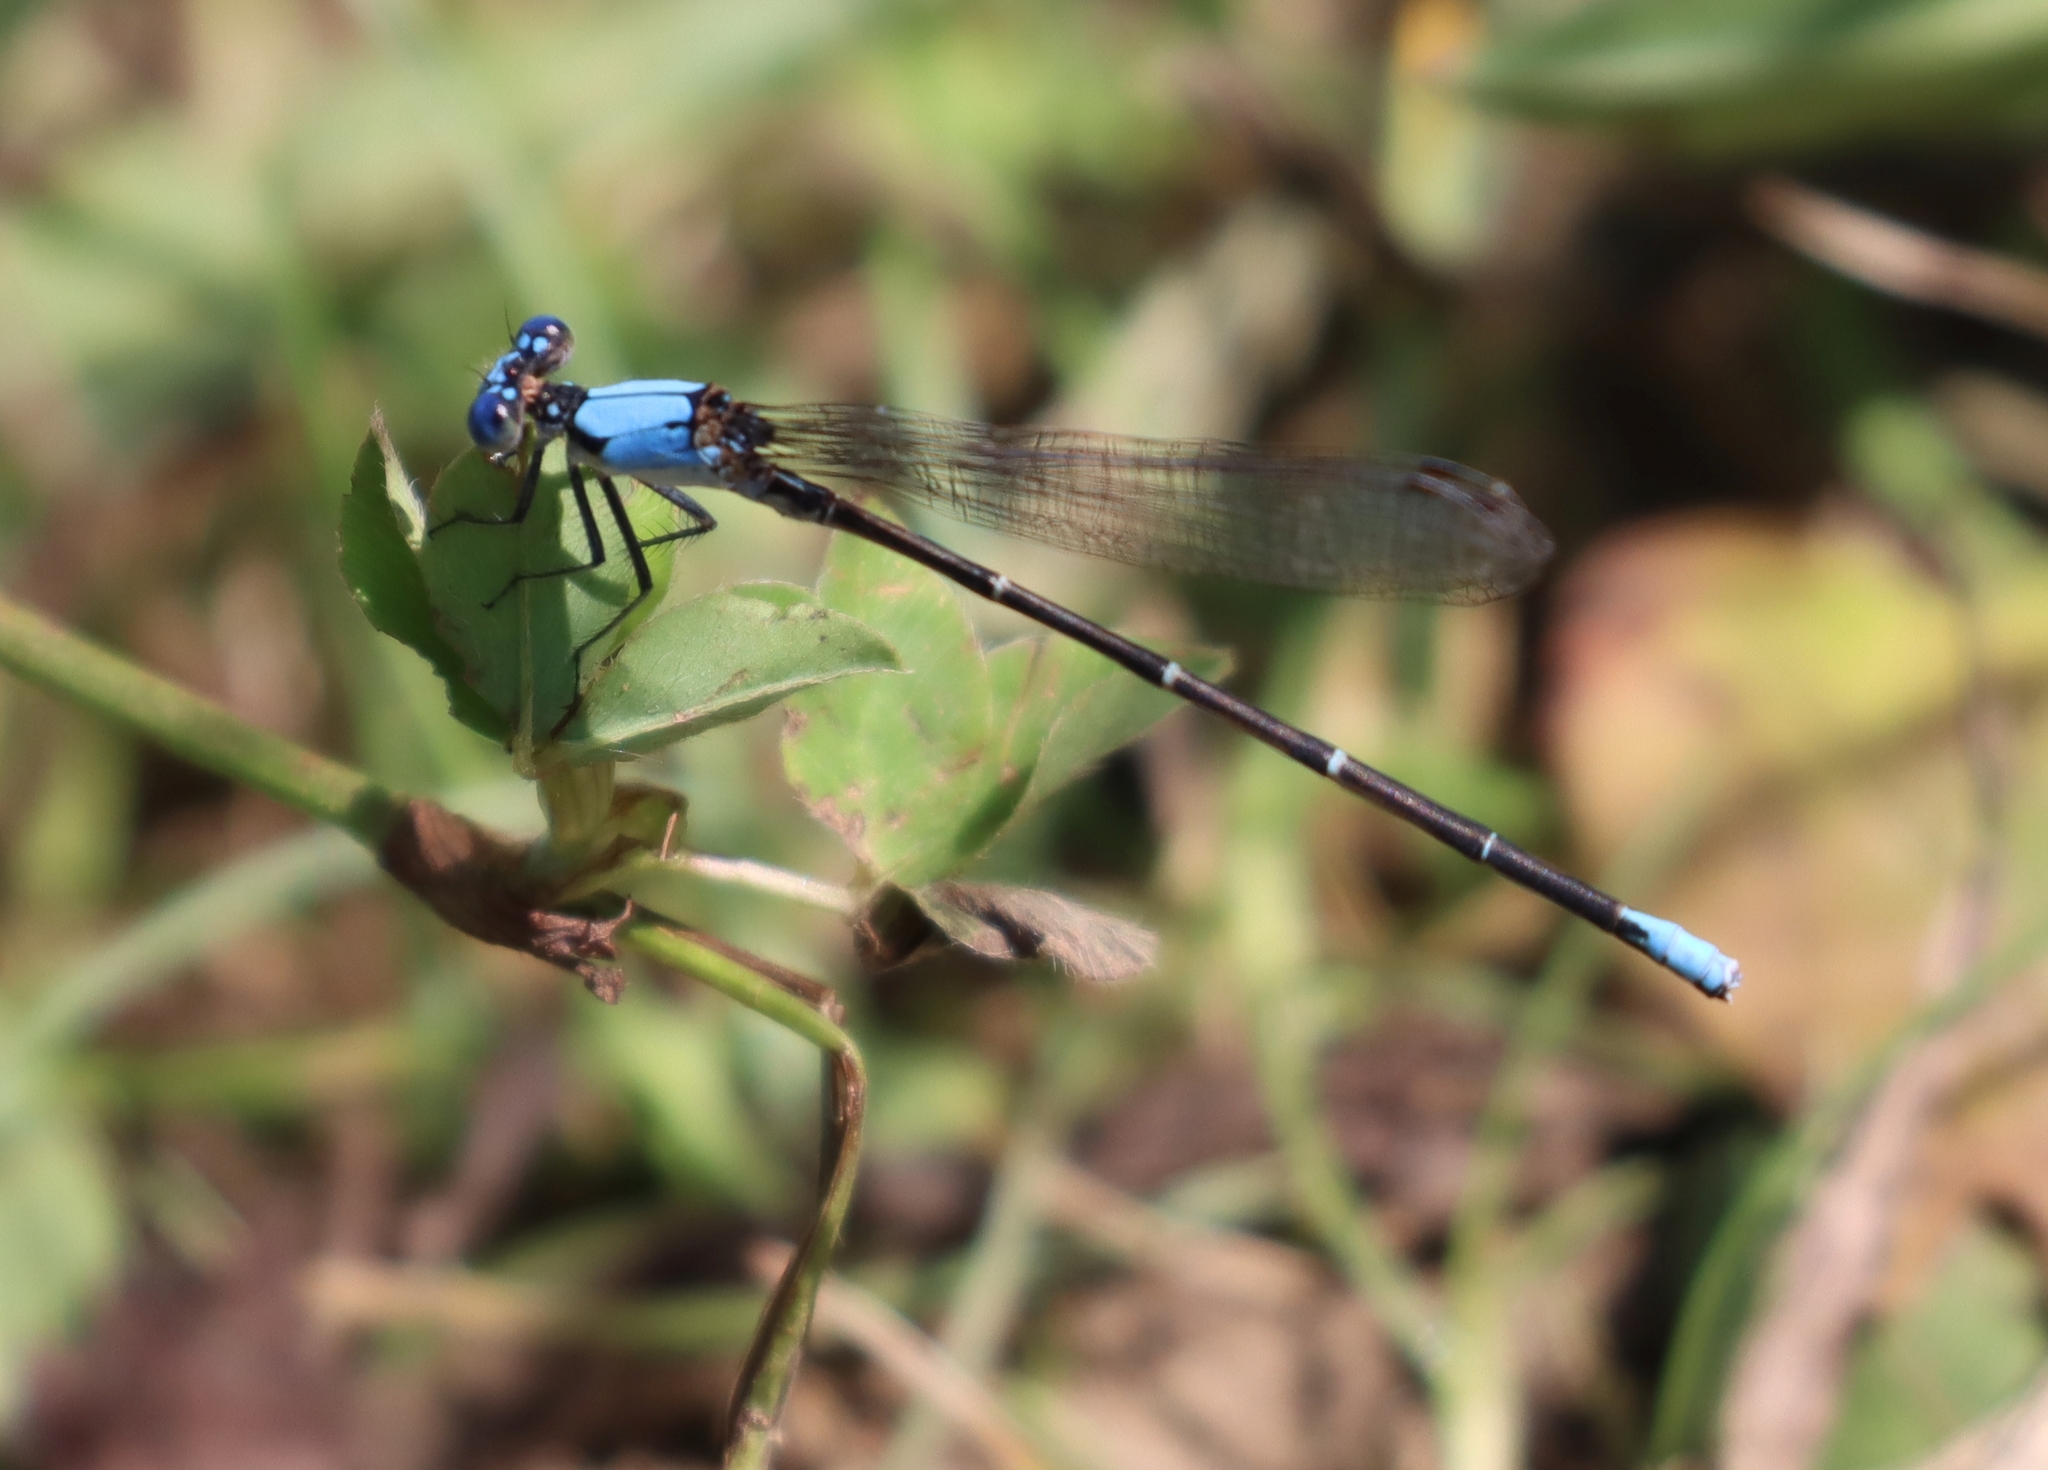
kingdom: Animalia
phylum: Arthropoda
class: Insecta
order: Odonata
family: Coenagrionidae
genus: Argia
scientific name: Argia apicalis
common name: Blue-fronted dancer
